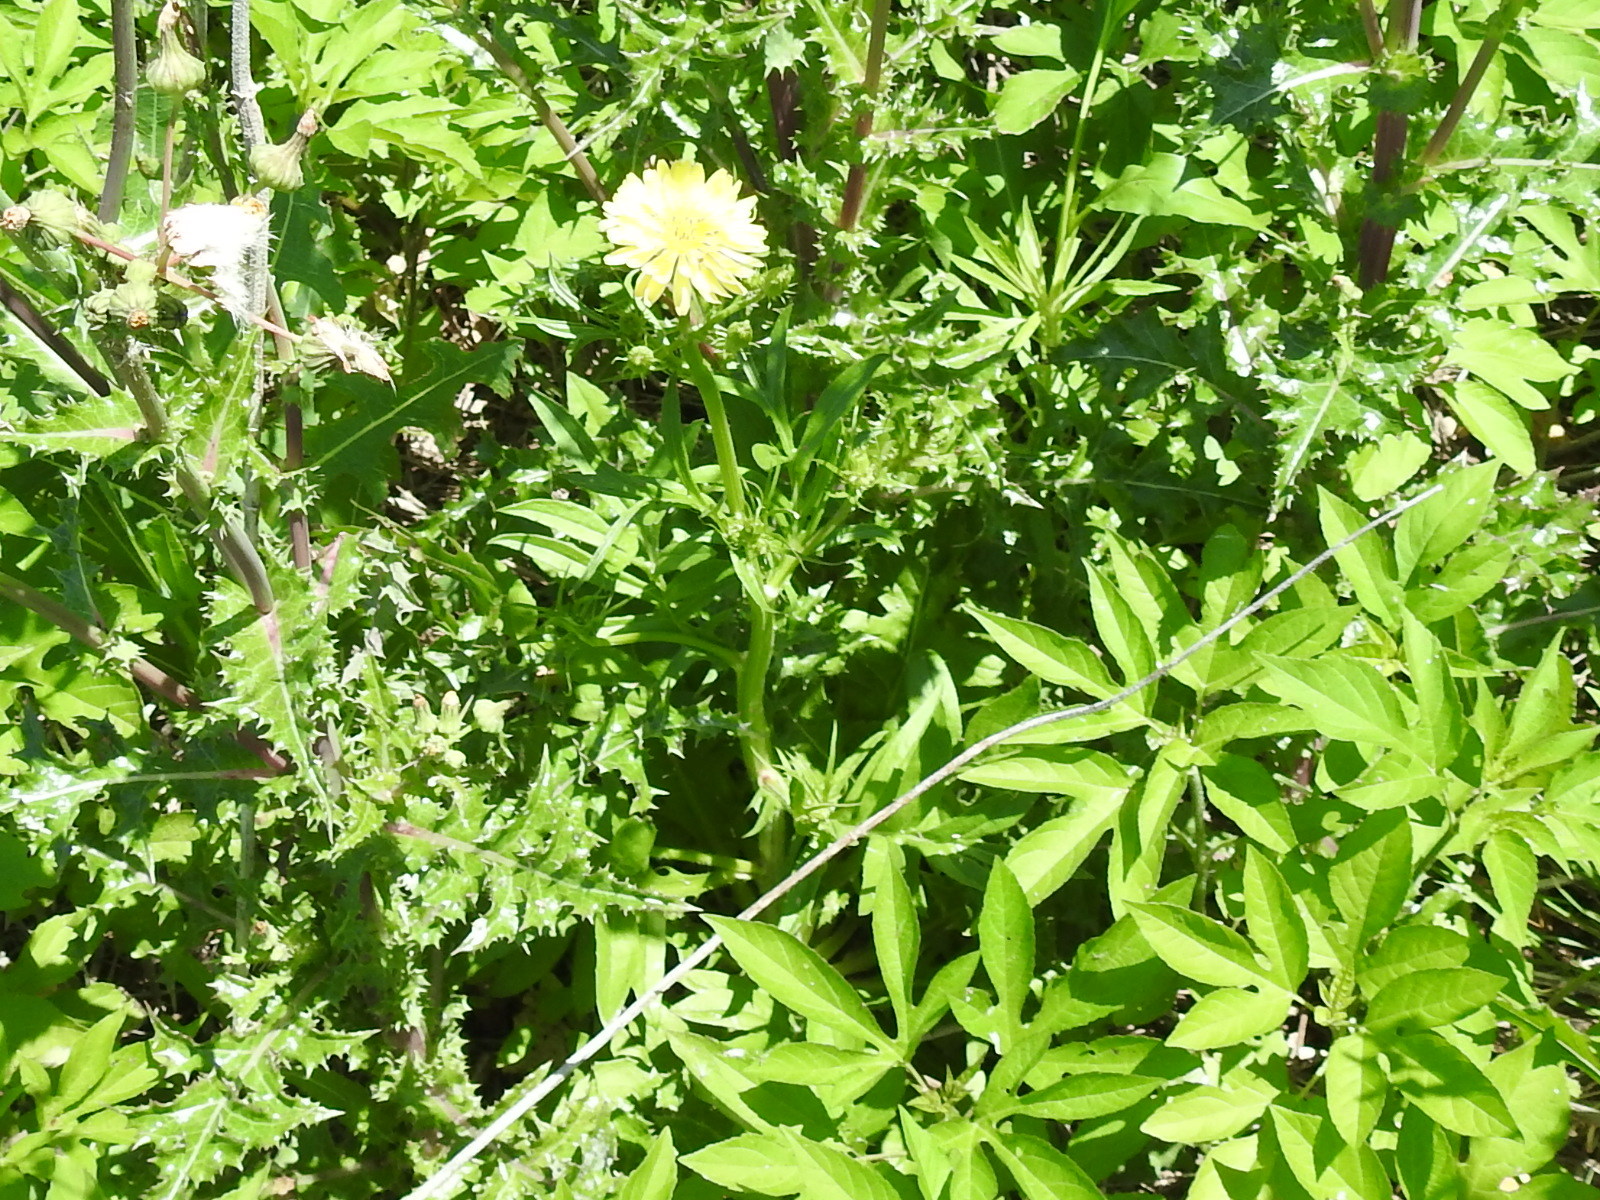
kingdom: Plantae
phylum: Tracheophyta
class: Magnoliopsida
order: Asterales
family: Asteraceae
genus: Pyrrhopappus
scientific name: Pyrrhopappus carolinianus
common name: Carolina desert-chicory
